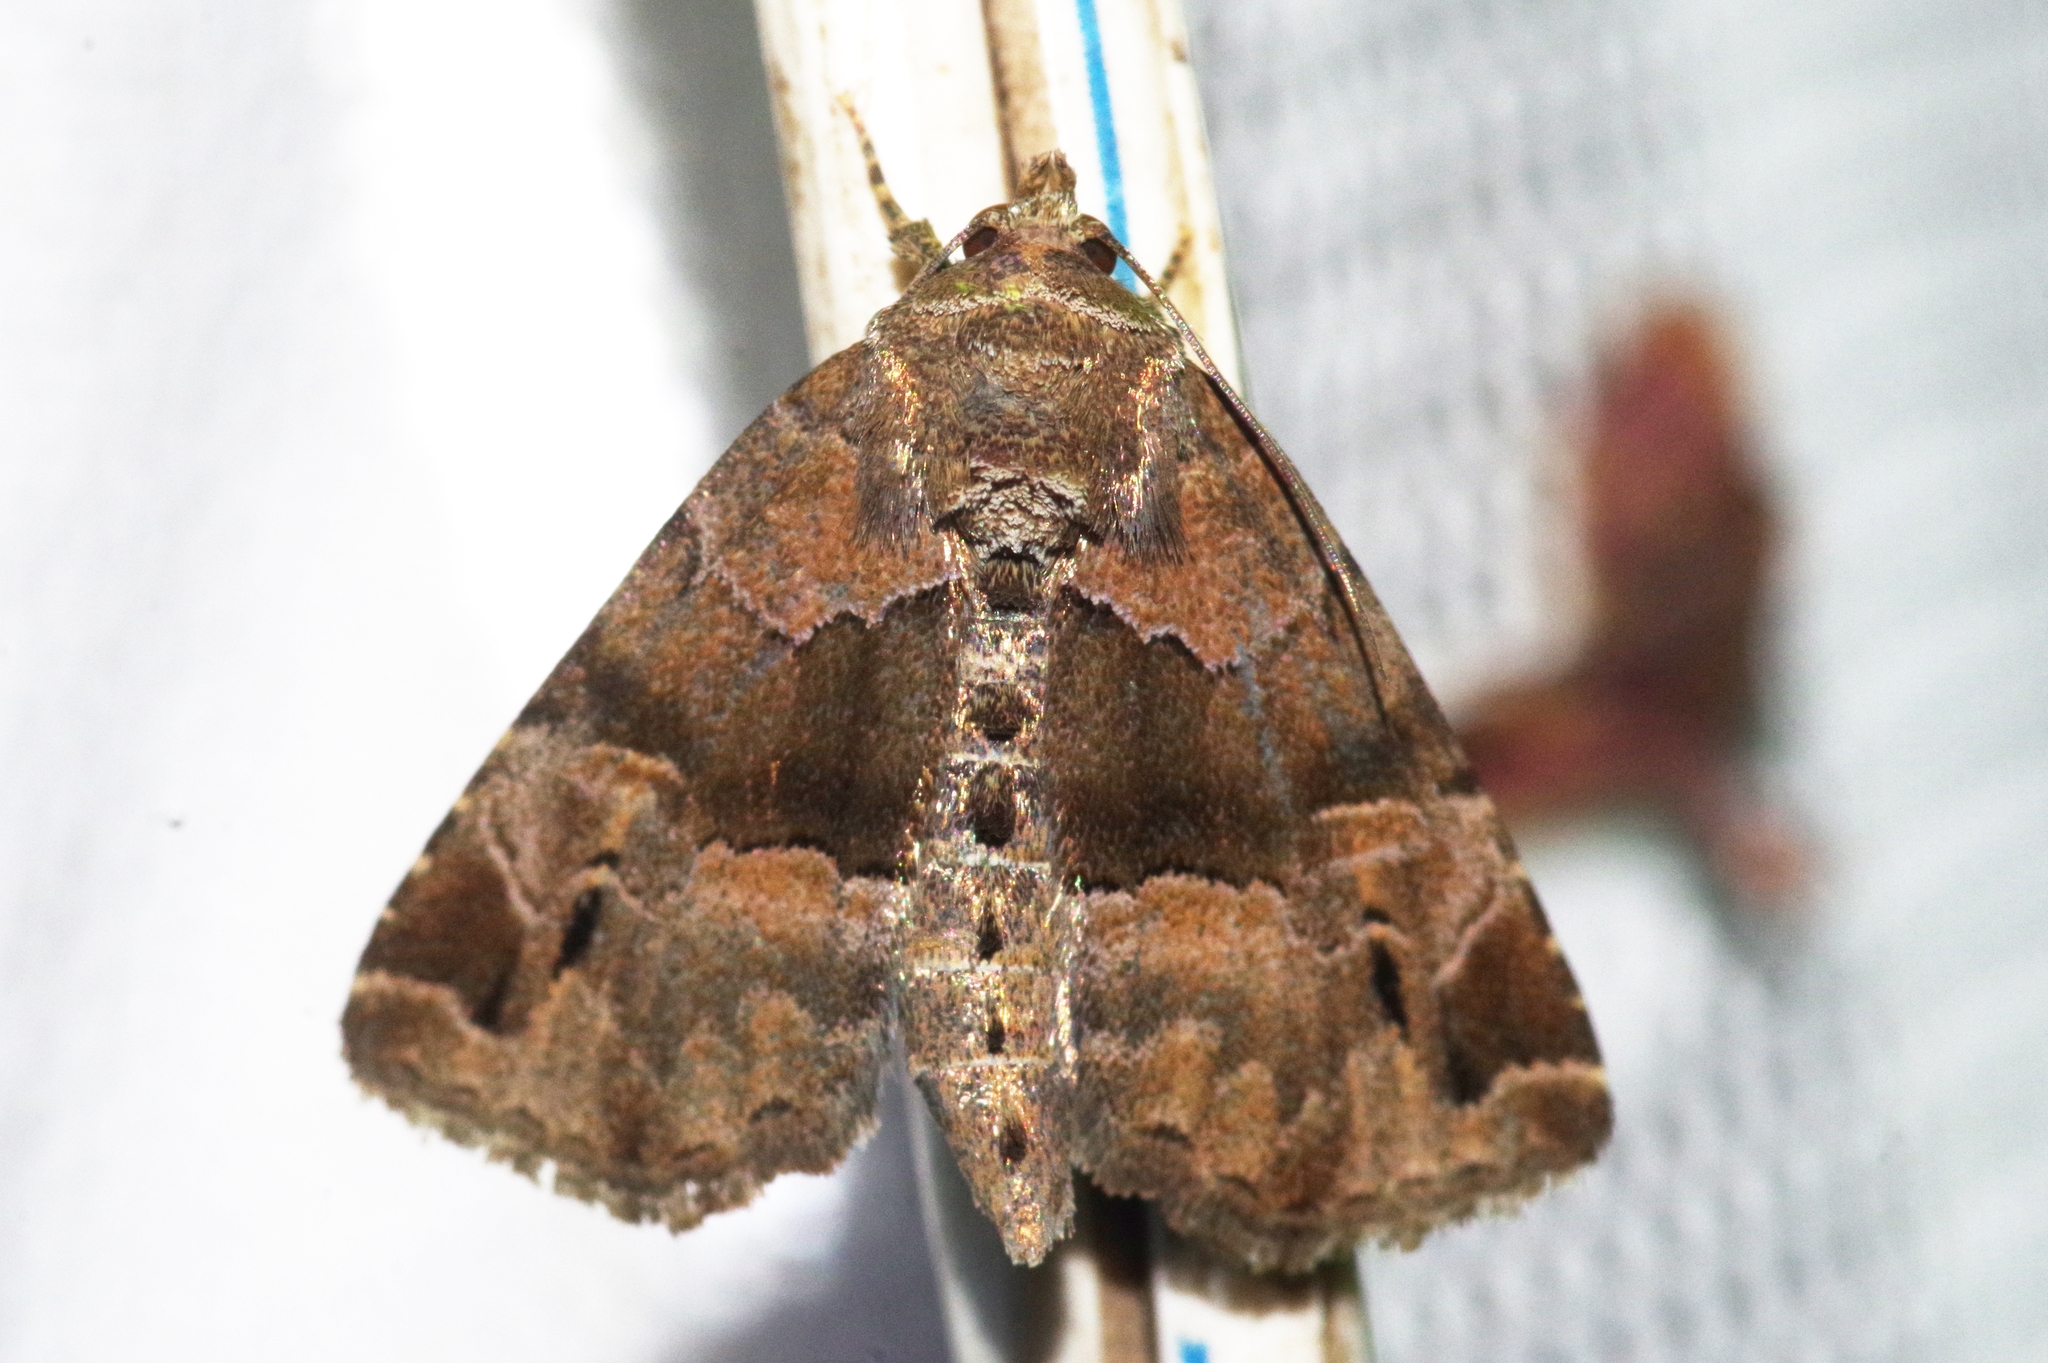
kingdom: Animalia
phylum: Arthropoda
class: Insecta
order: Lepidoptera
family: Noctuidae
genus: Niphonyx
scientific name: Niphonyx segregata
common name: Hops angleshade moth
